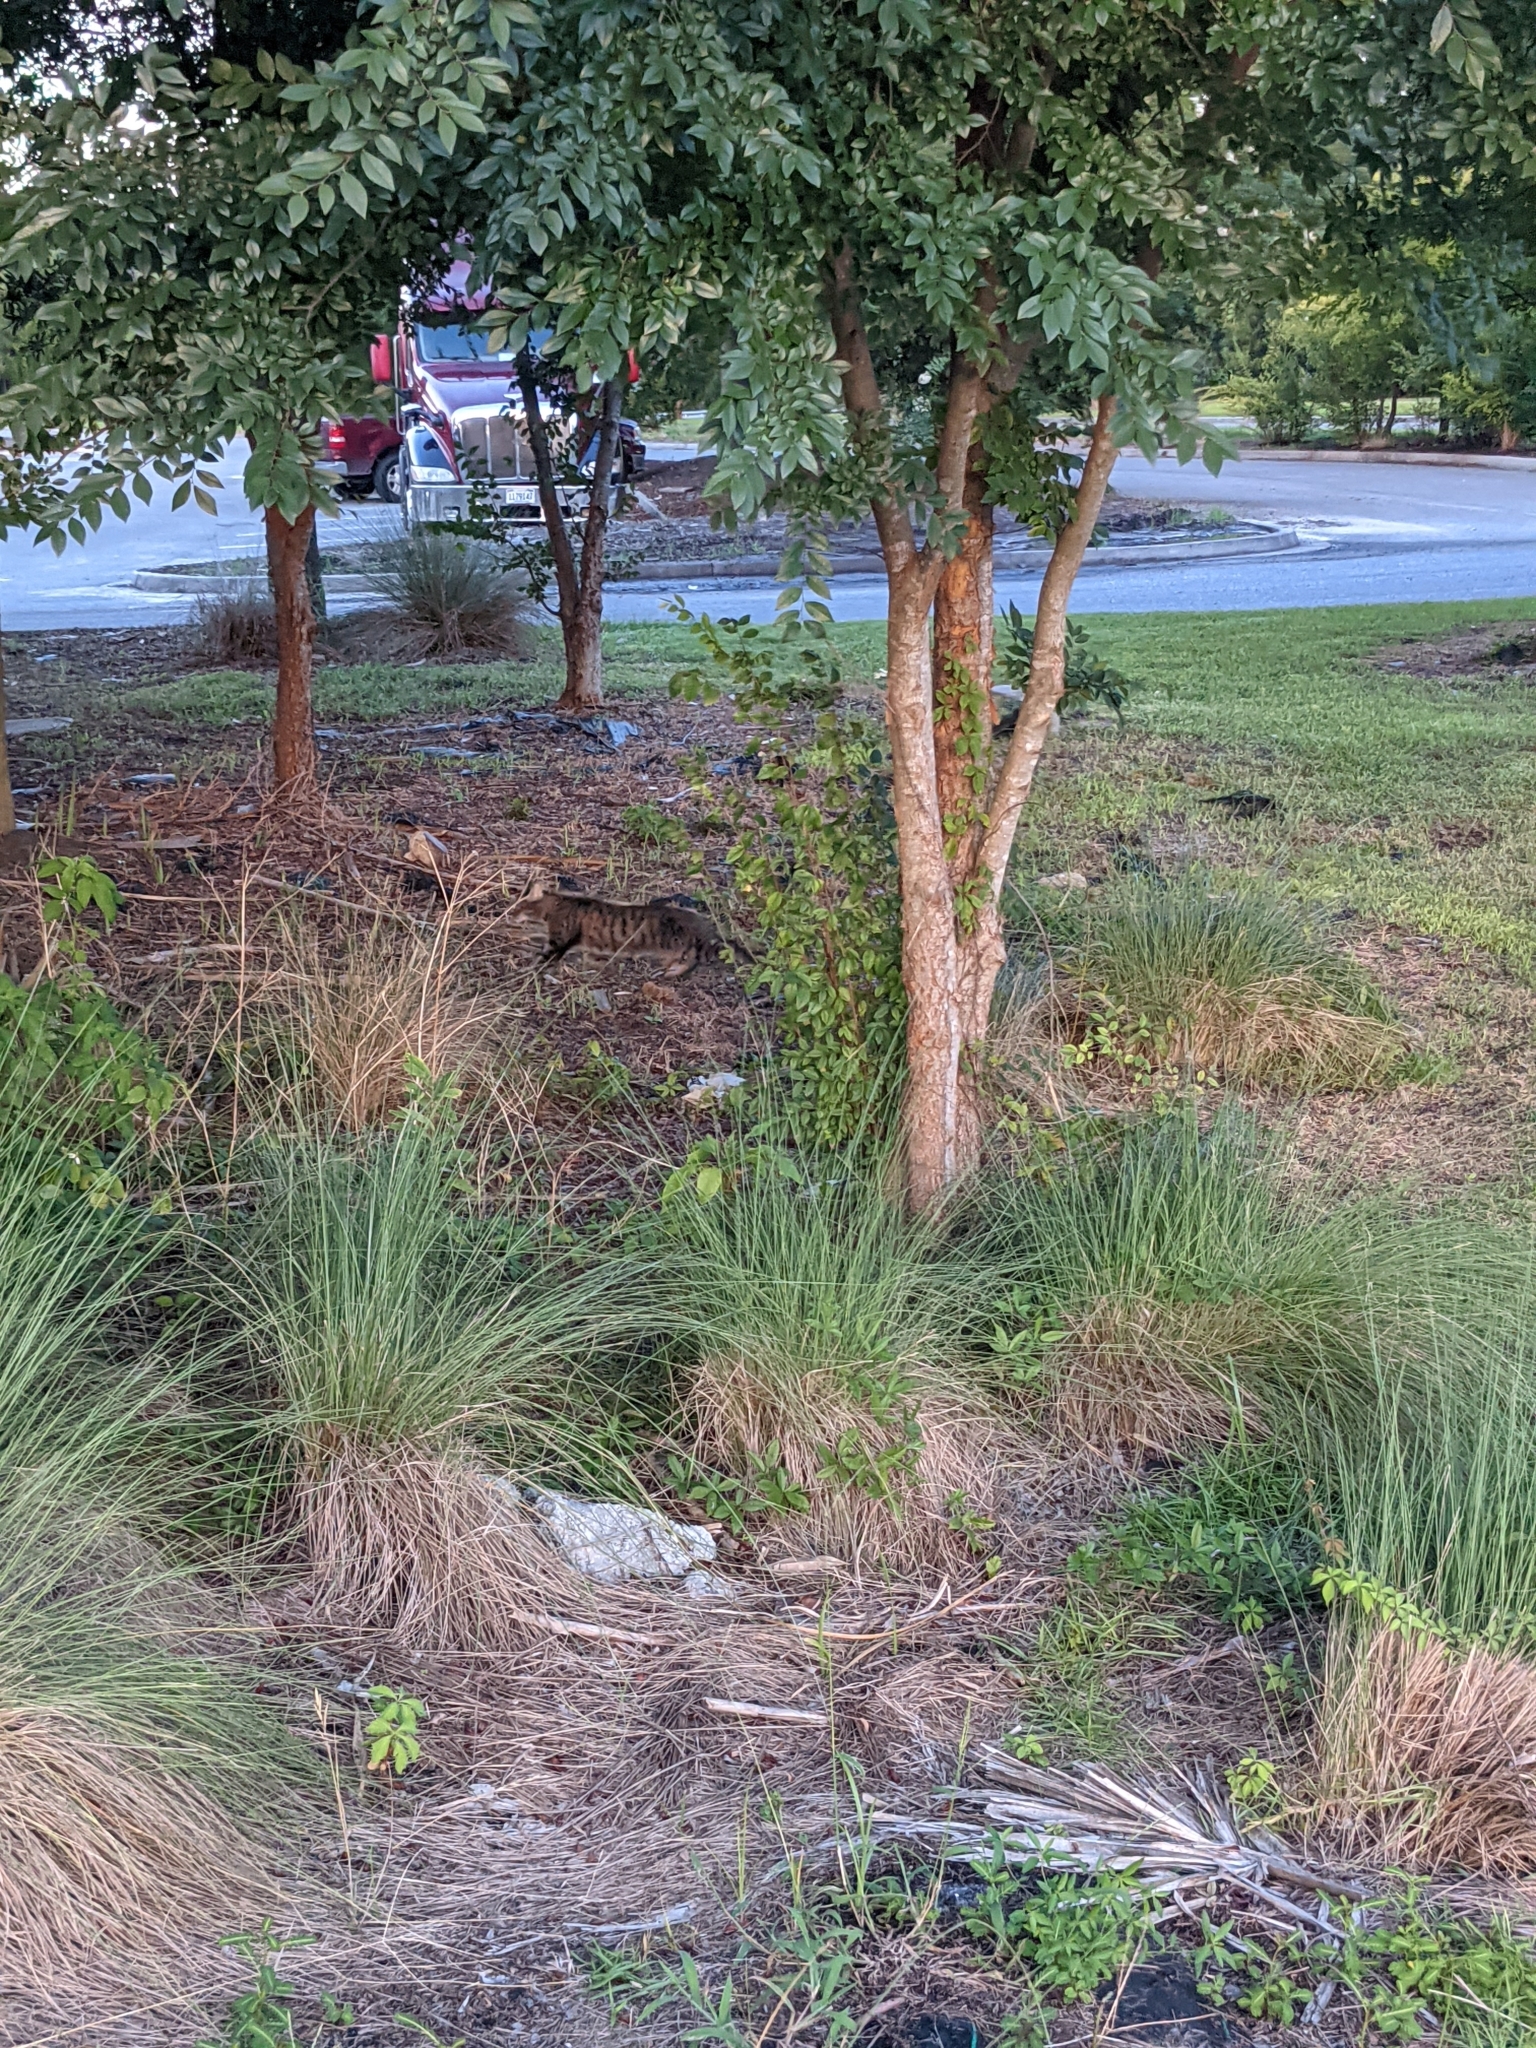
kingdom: Animalia
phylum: Chordata
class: Mammalia
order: Carnivora
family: Felidae
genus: Felis
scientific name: Felis catus
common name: Domestic cat
